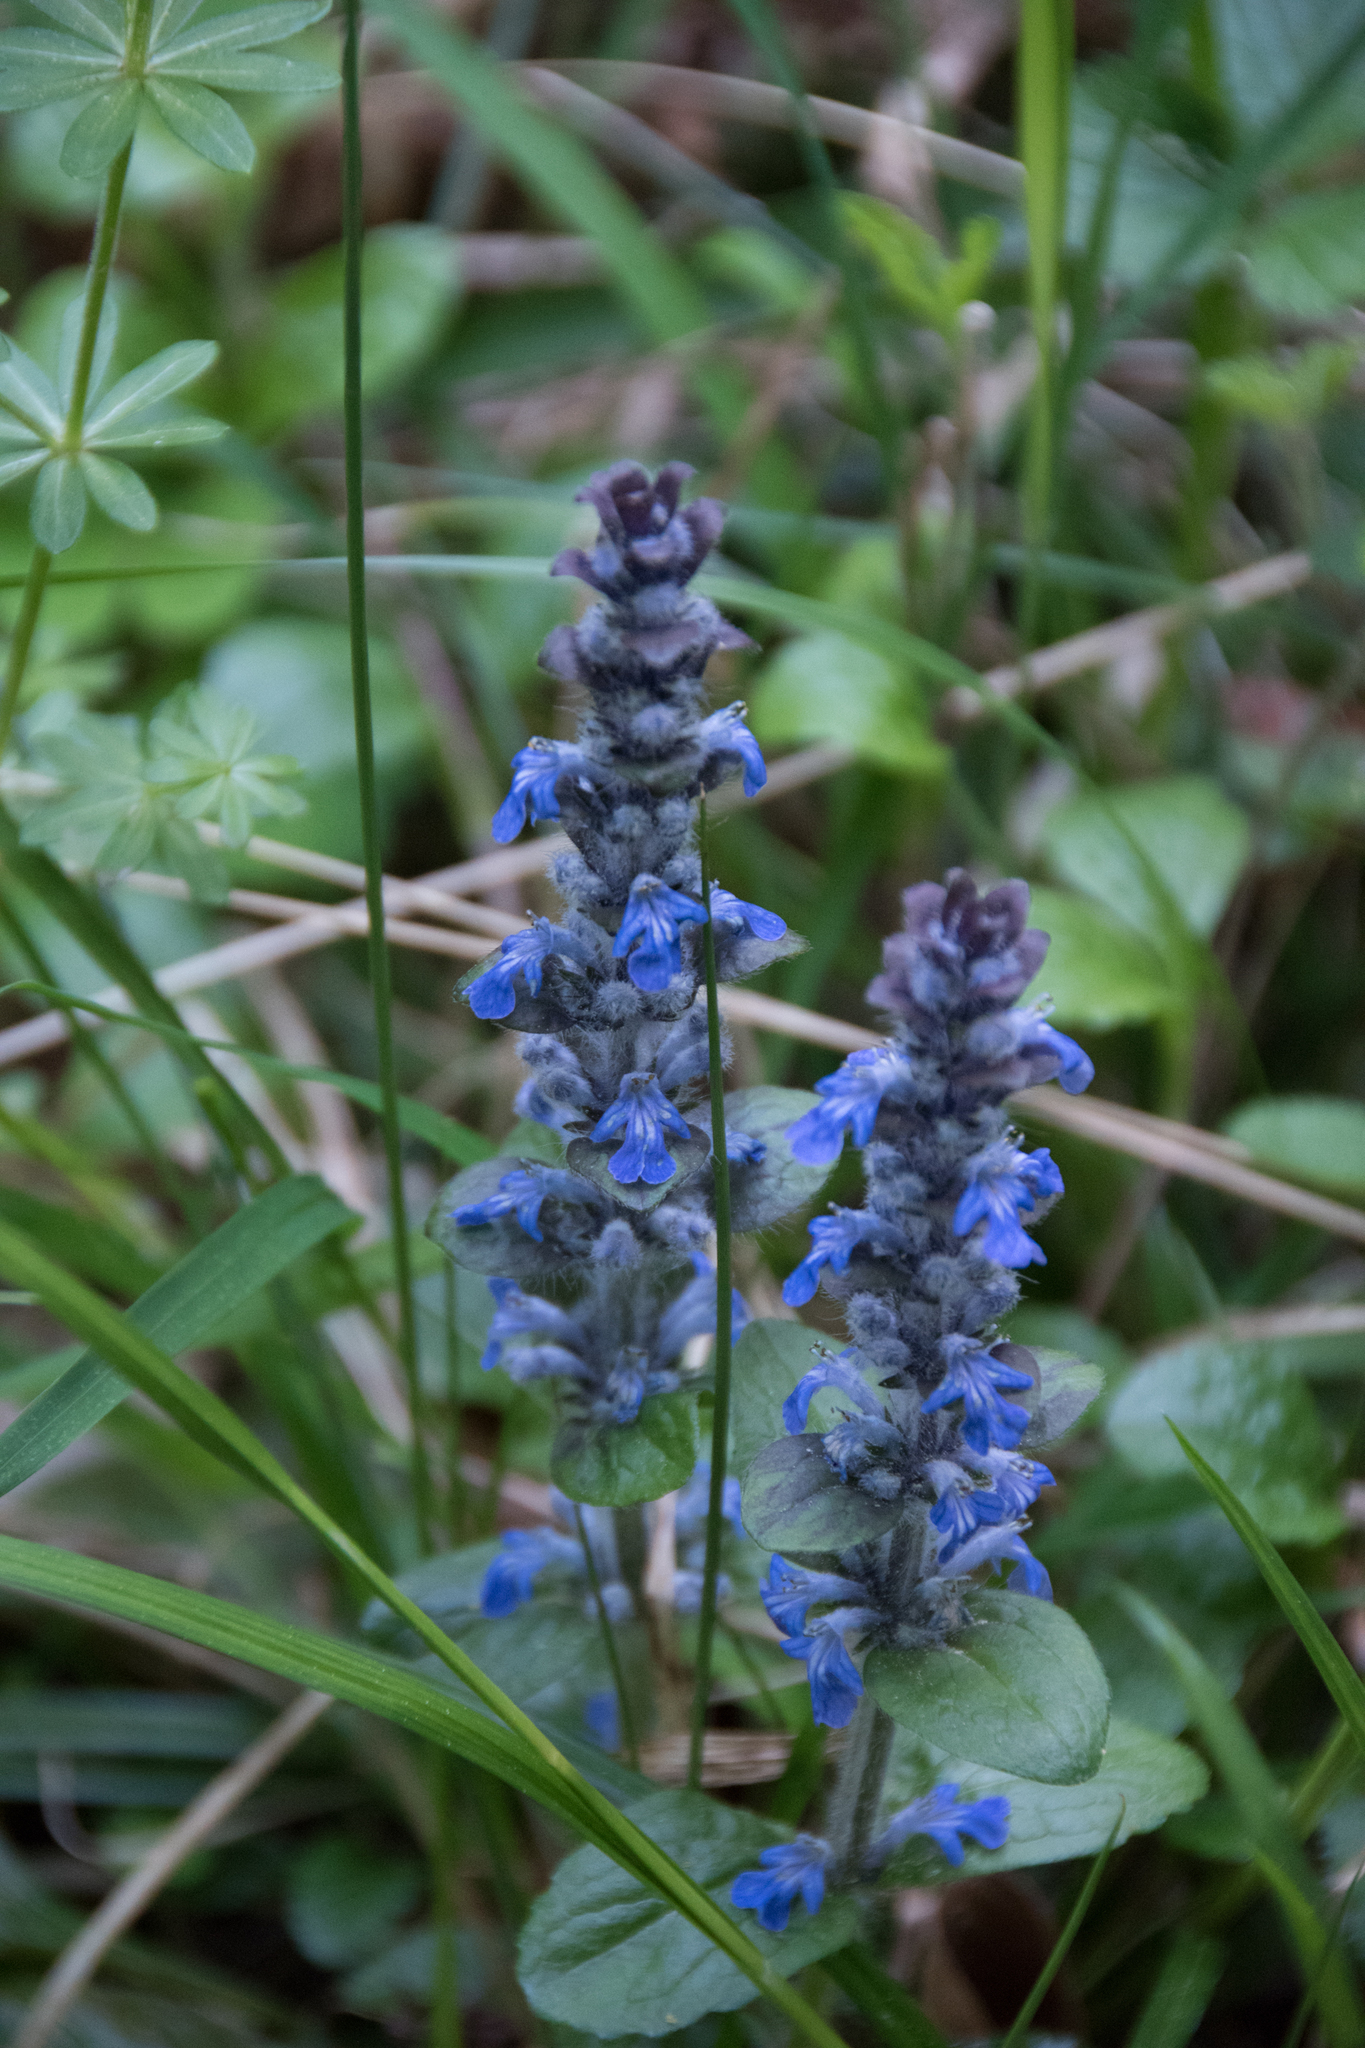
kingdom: Plantae
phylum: Tracheophyta
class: Magnoliopsida
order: Lamiales
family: Lamiaceae
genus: Ajuga
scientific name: Ajuga reptans
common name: Bugle
